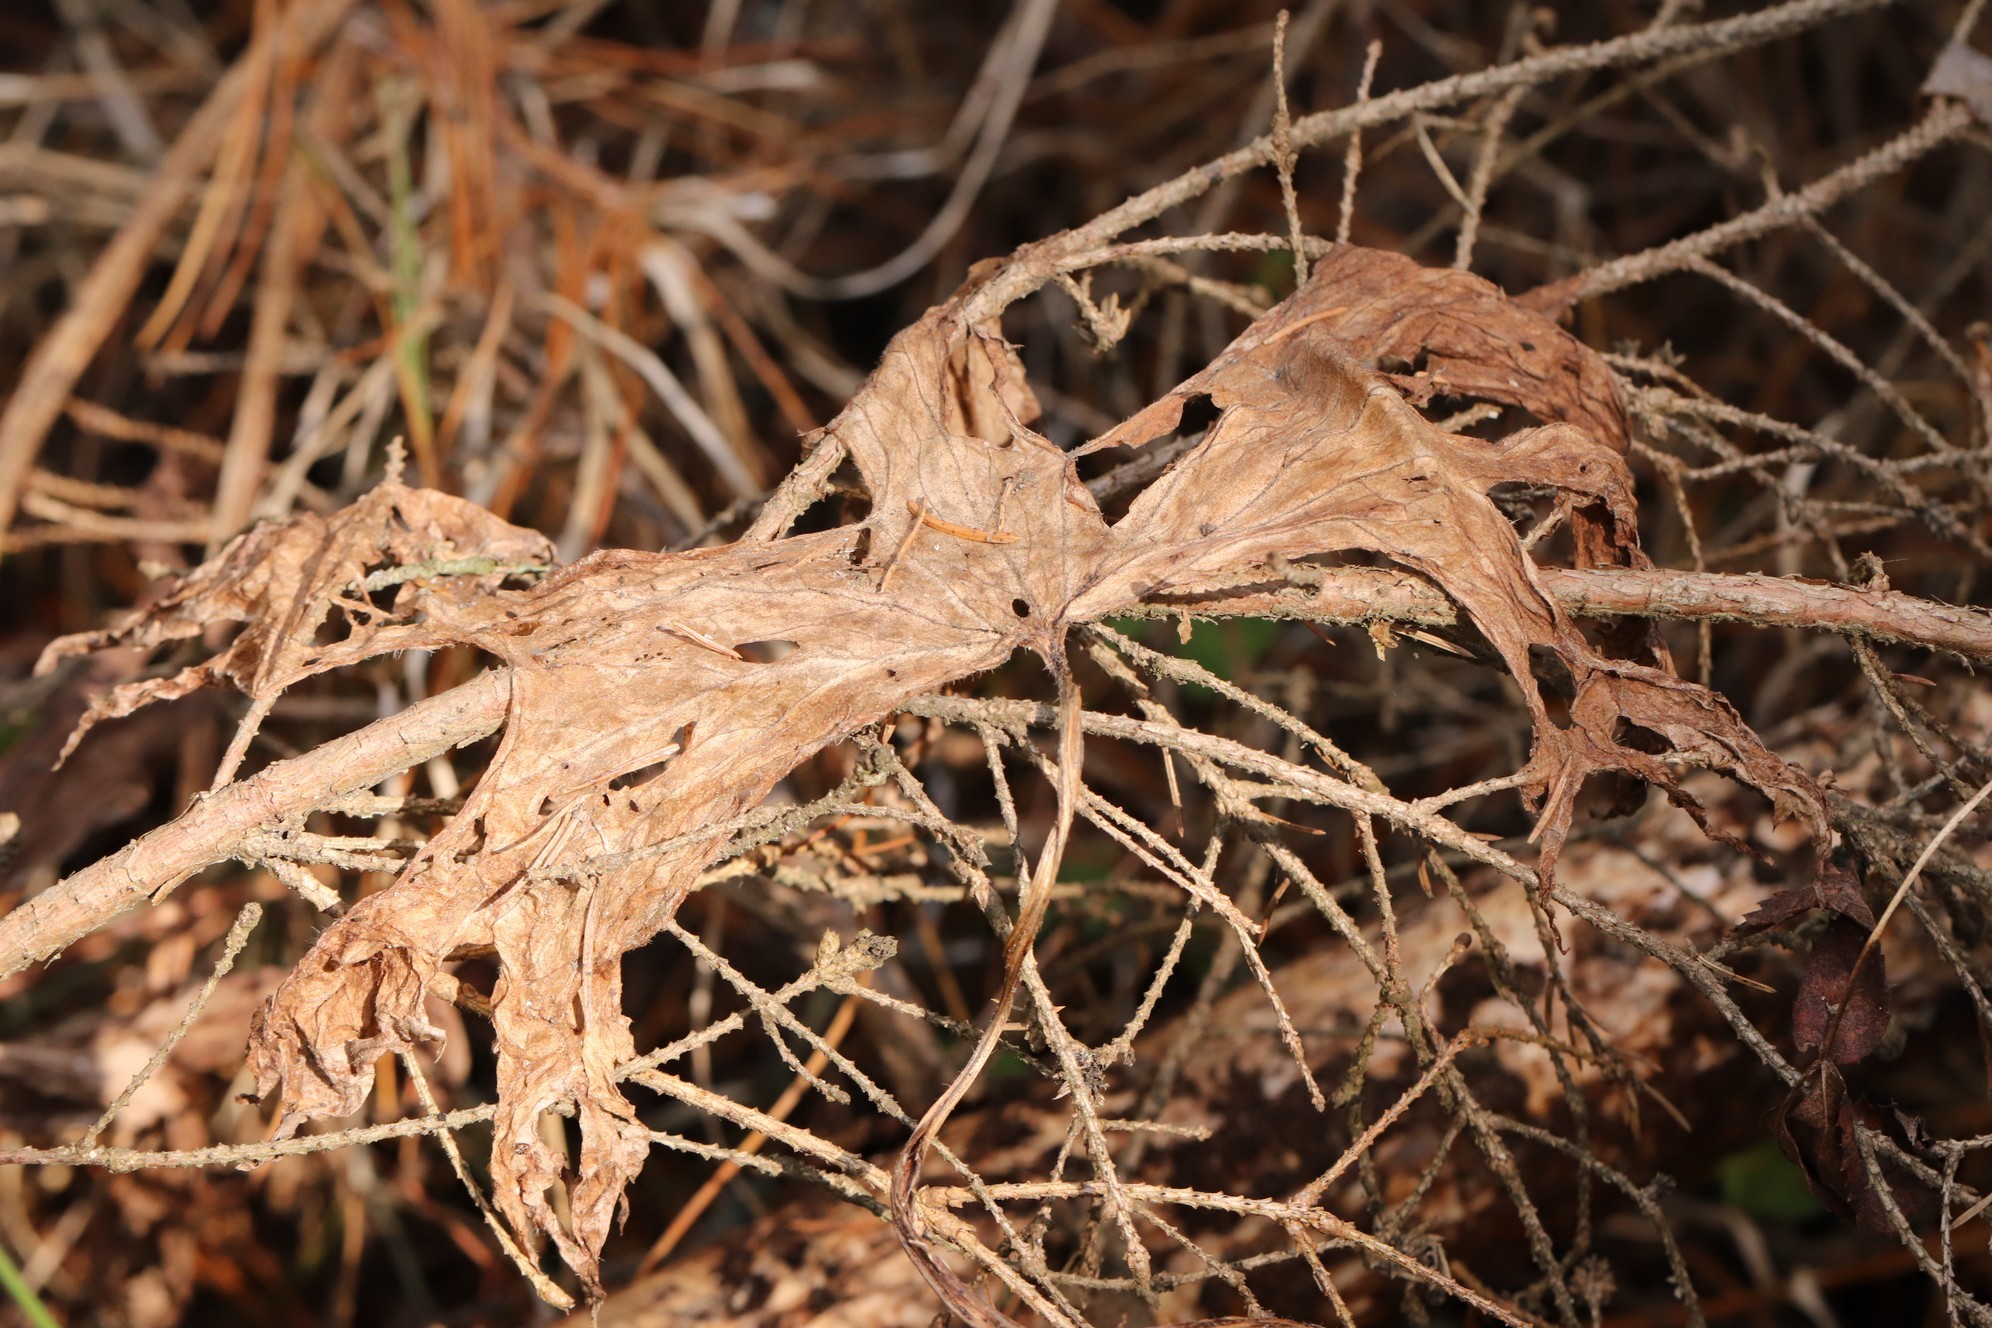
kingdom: Plantae
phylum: Tracheophyta
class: Magnoliopsida
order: Ranunculales
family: Ranunculaceae
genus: Aconitum
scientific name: Aconitum septentrionale
